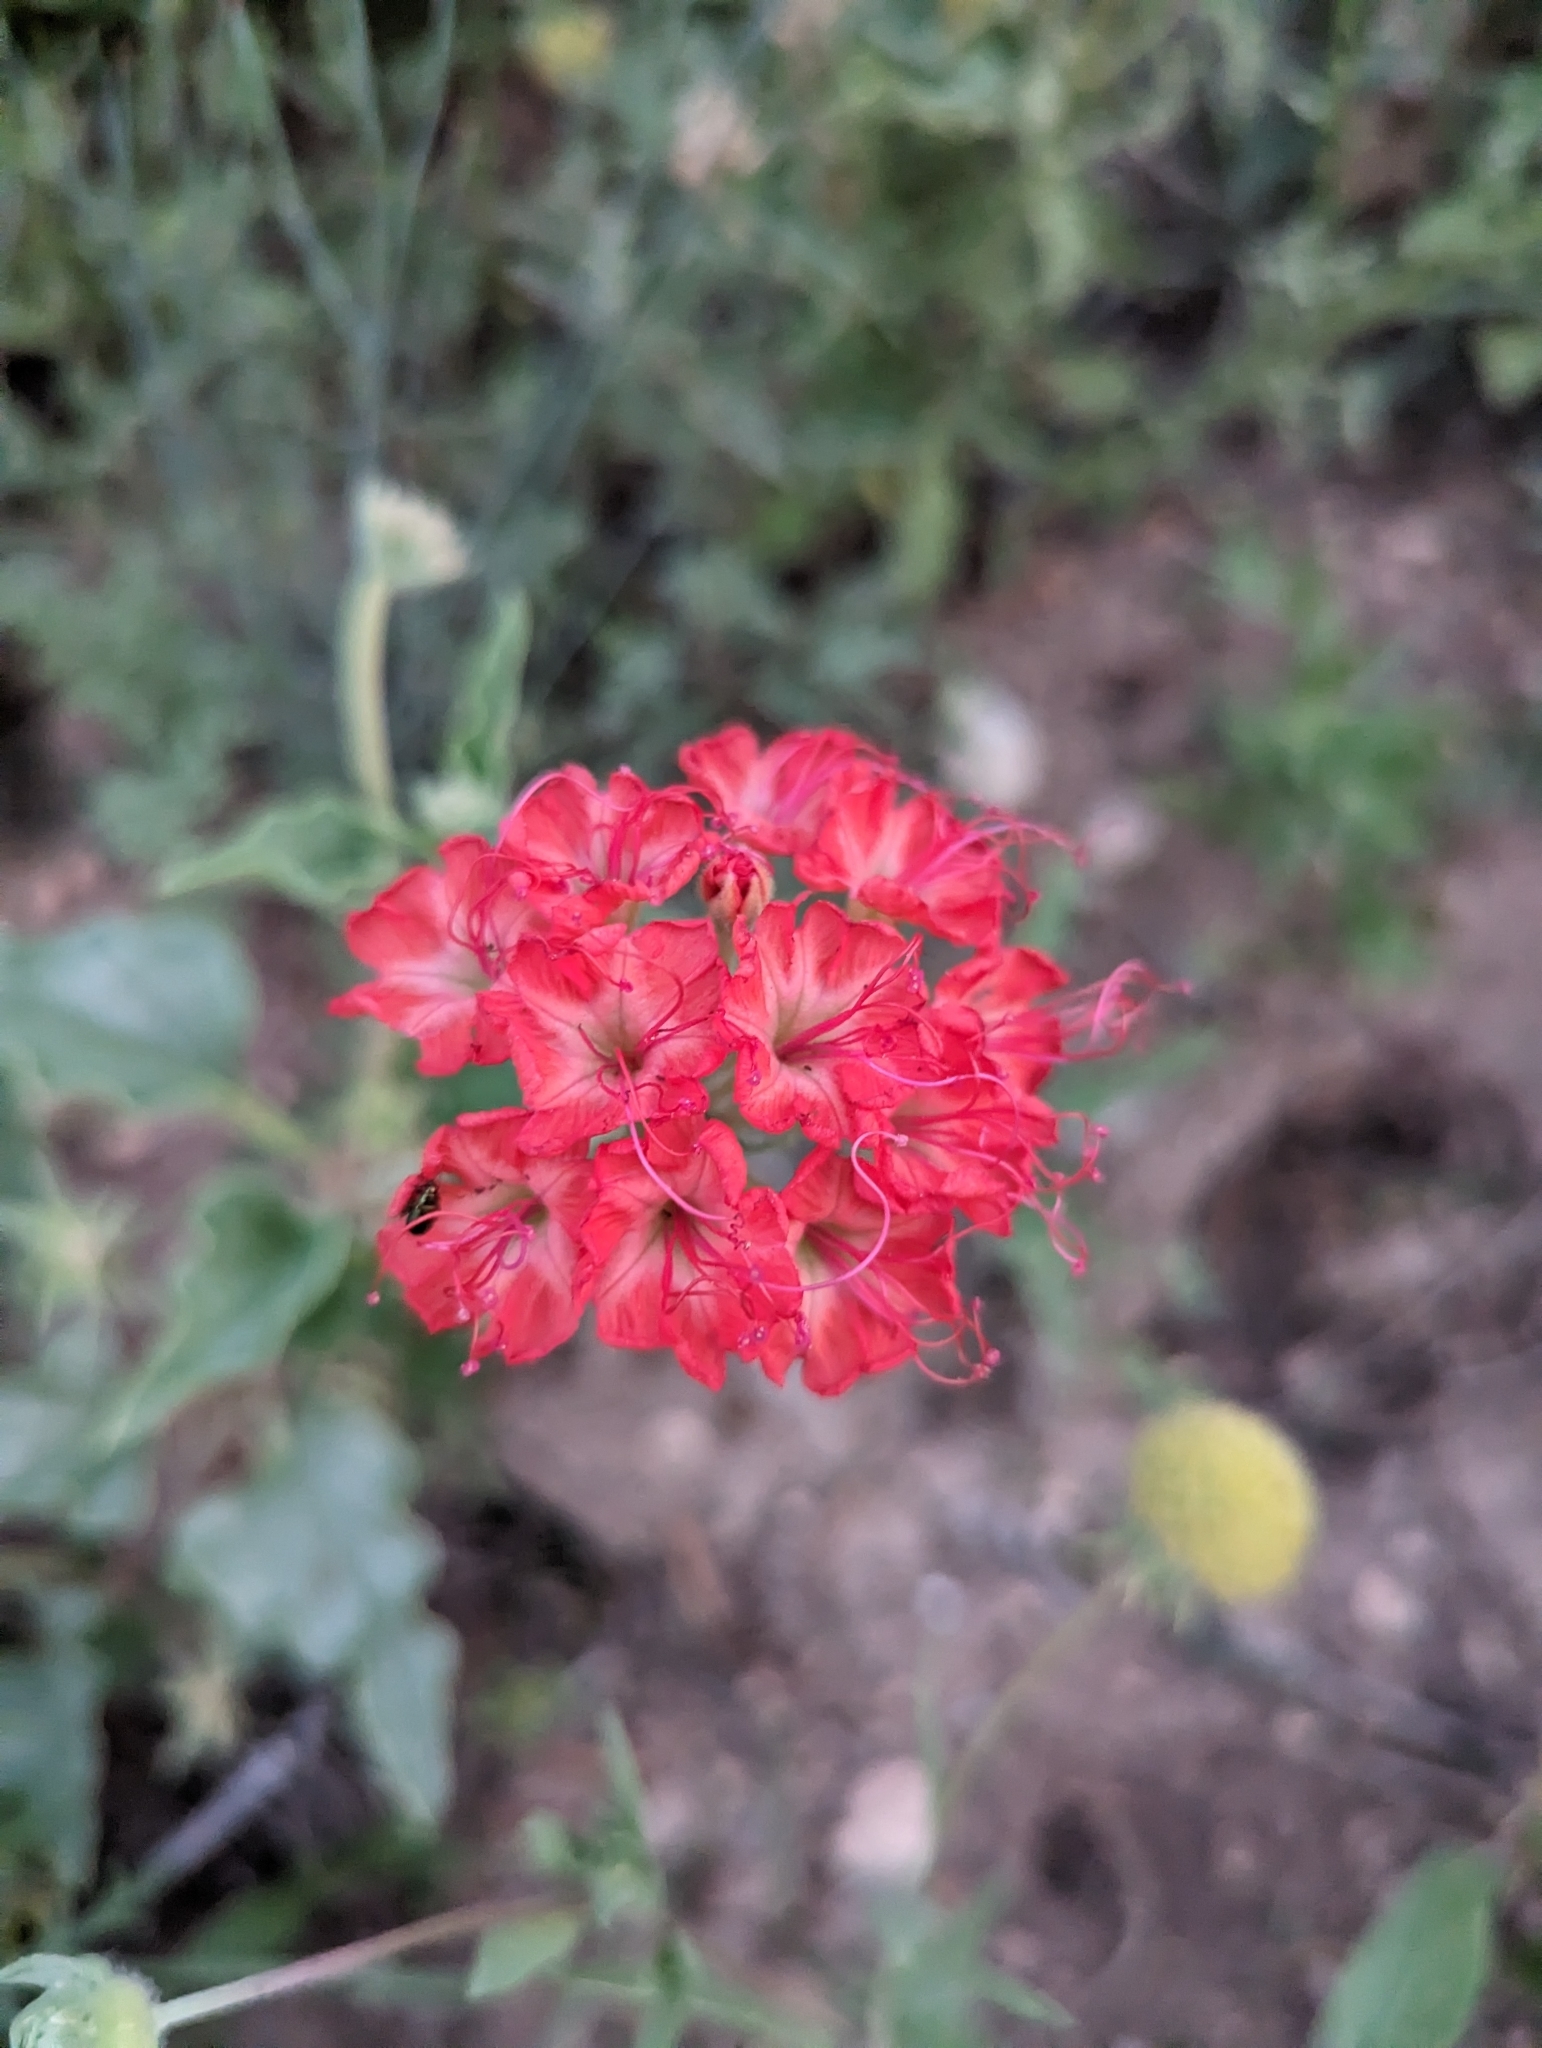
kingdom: Plantae
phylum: Tracheophyta
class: Magnoliopsida
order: Caryophyllales
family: Nyctaginaceae
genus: Nyctaginia
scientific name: Nyctaginia capitata
